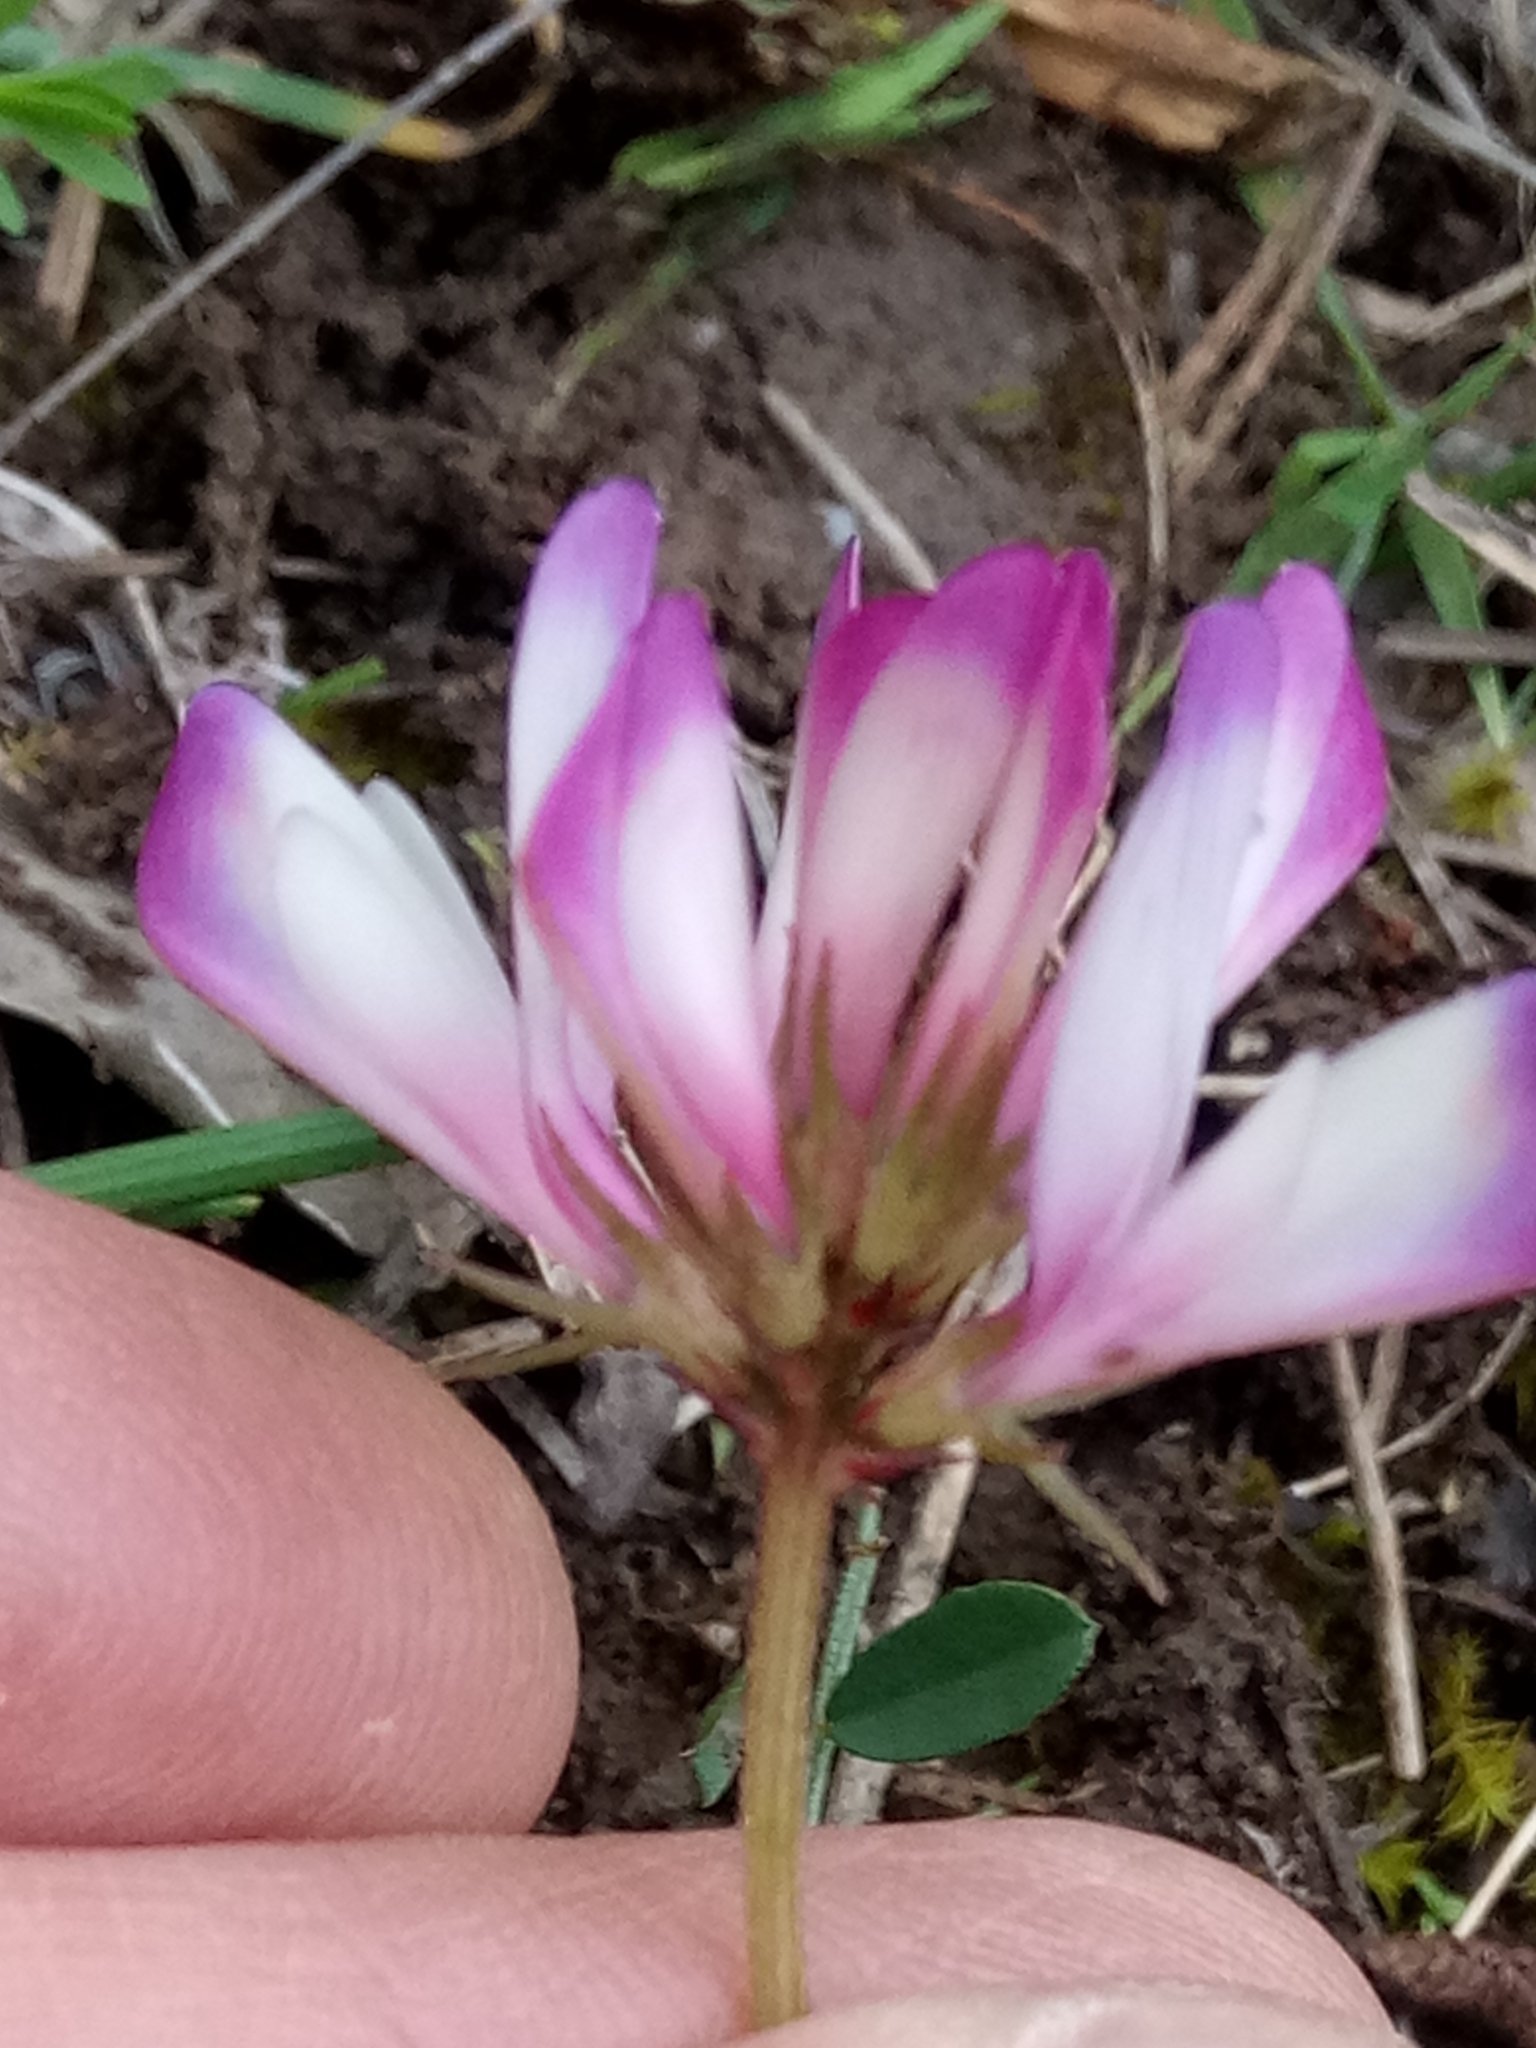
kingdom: Plantae
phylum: Tracheophyta
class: Magnoliopsida
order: Fabales
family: Fabaceae
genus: Sulla
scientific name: Sulla glomerata
